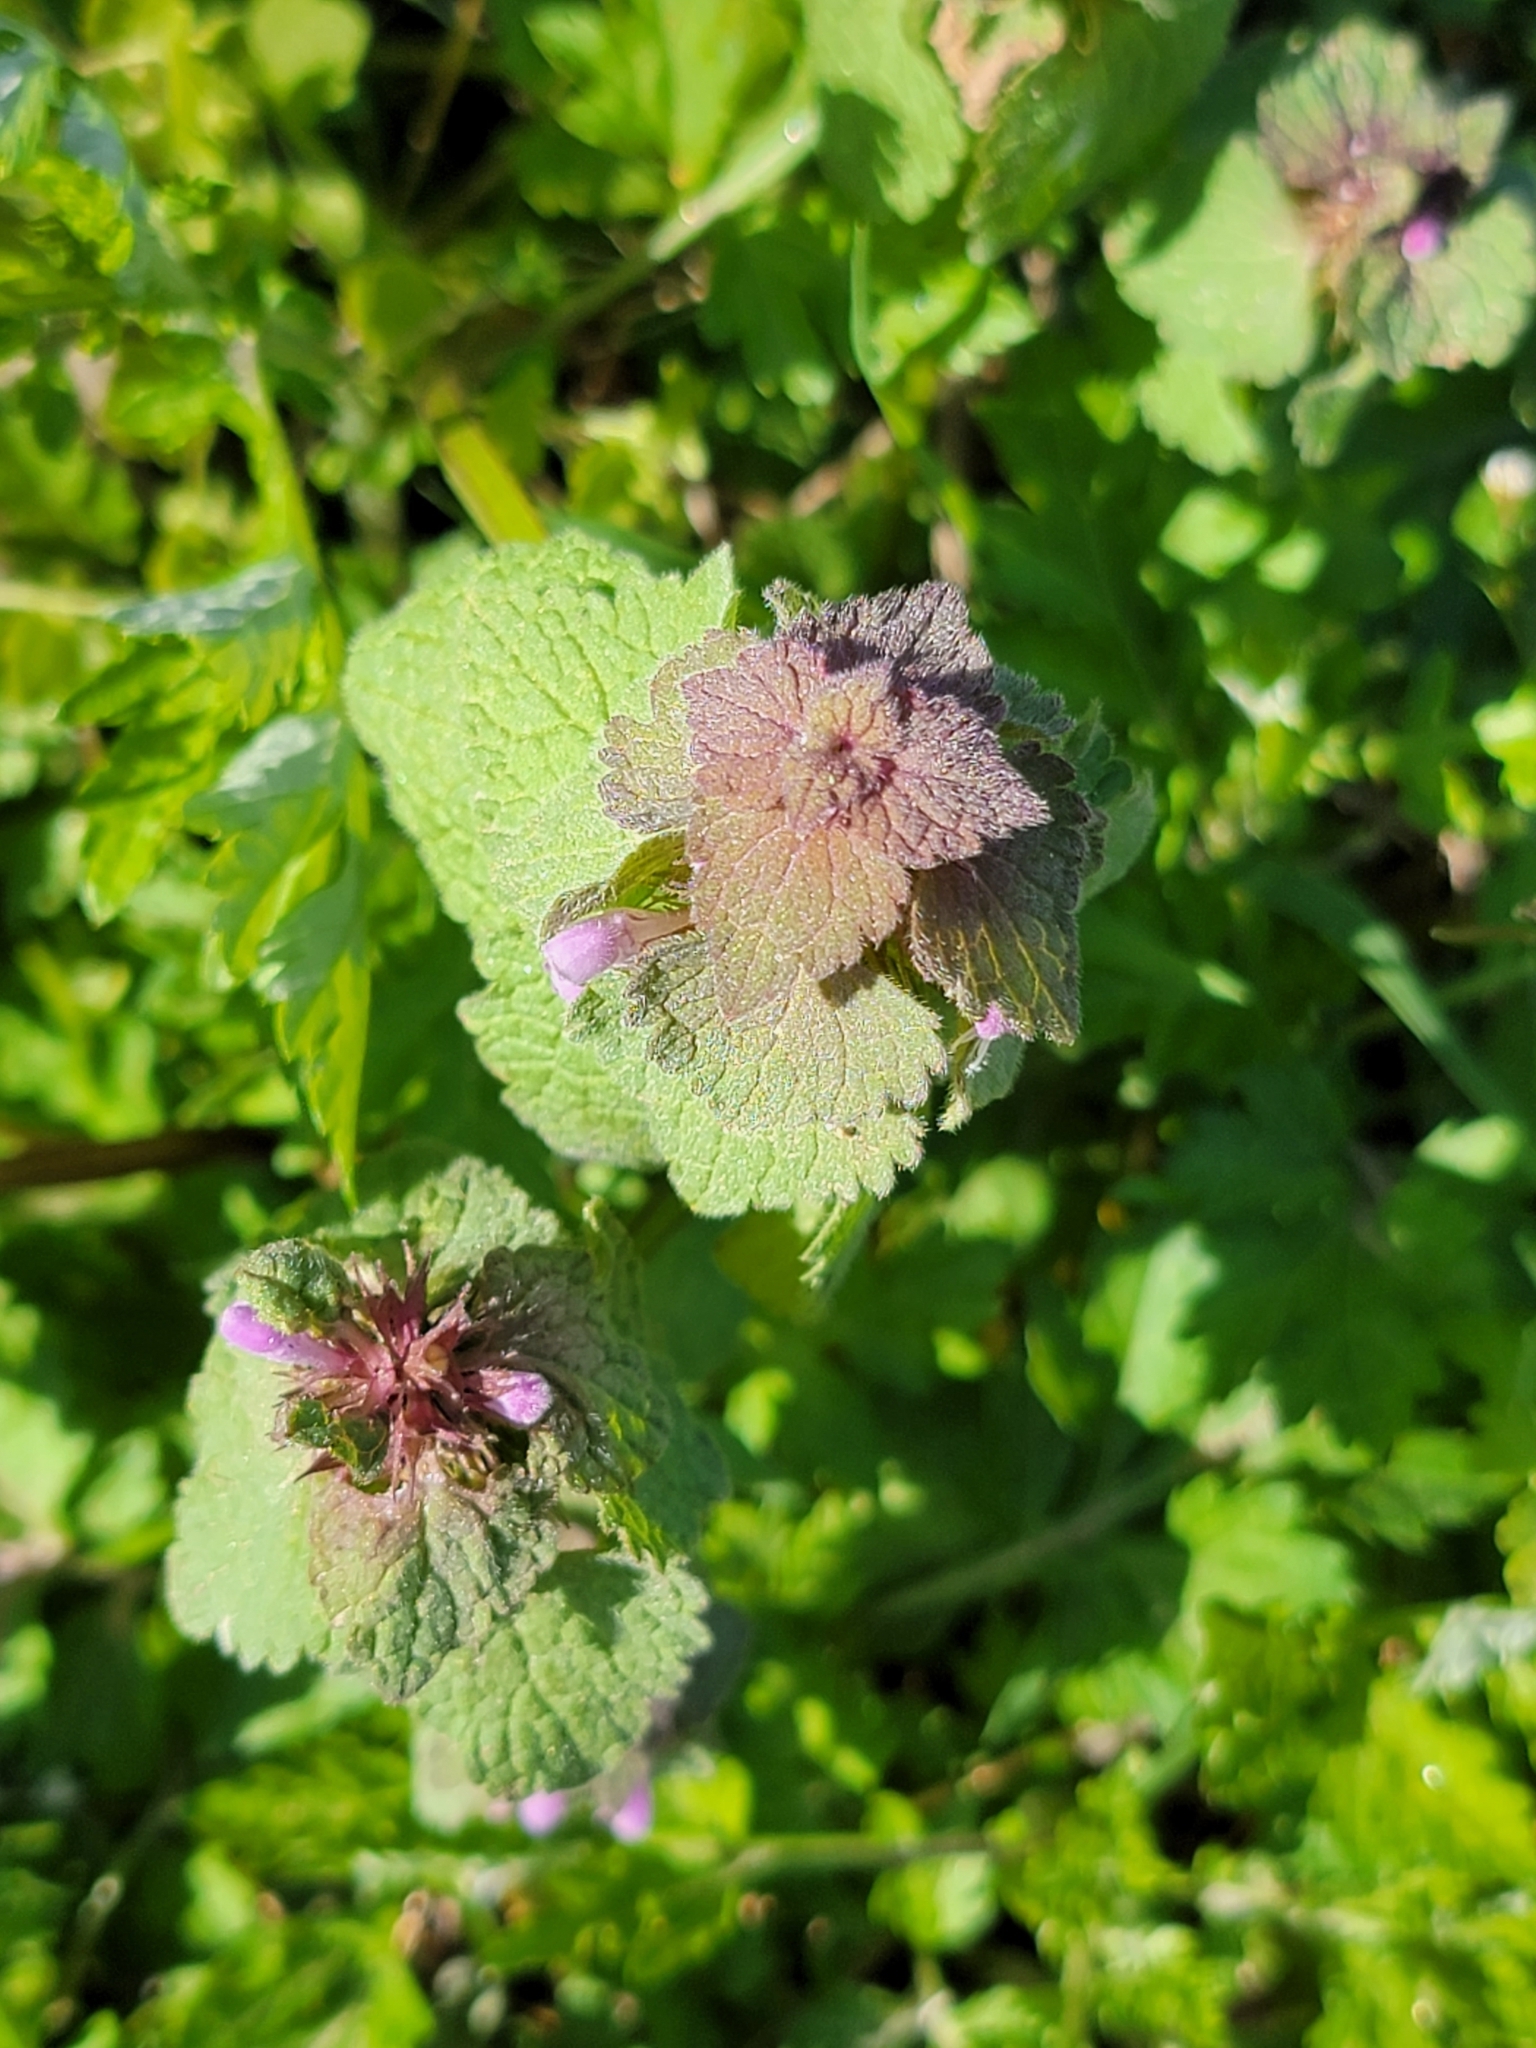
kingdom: Plantae
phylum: Tracheophyta
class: Magnoliopsida
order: Lamiales
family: Lamiaceae
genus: Lamium
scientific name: Lamium purpureum
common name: Red dead-nettle
